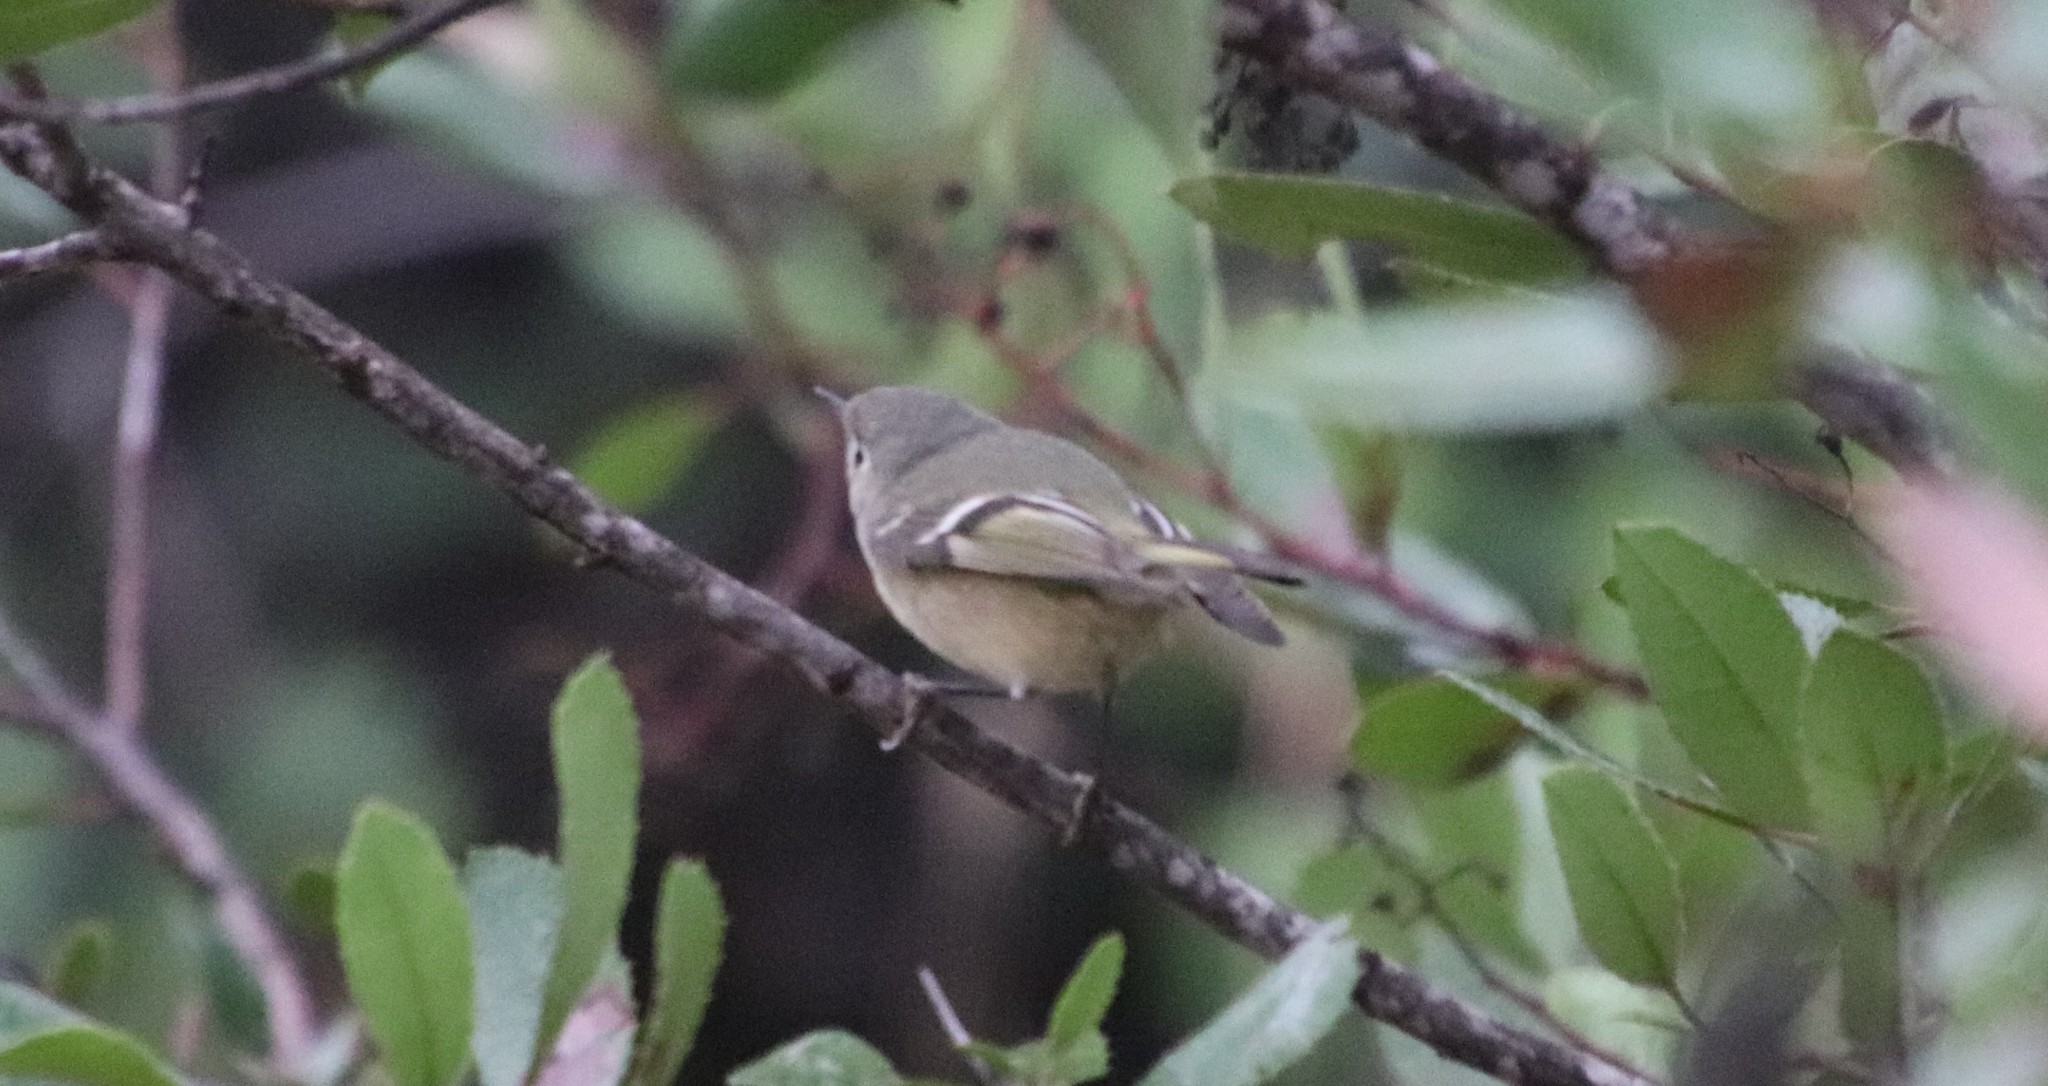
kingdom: Animalia
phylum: Chordata
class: Aves
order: Passeriformes
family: Regulidae
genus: Regulus
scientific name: Regulus calendula
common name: Ruby-crowned kinglet
